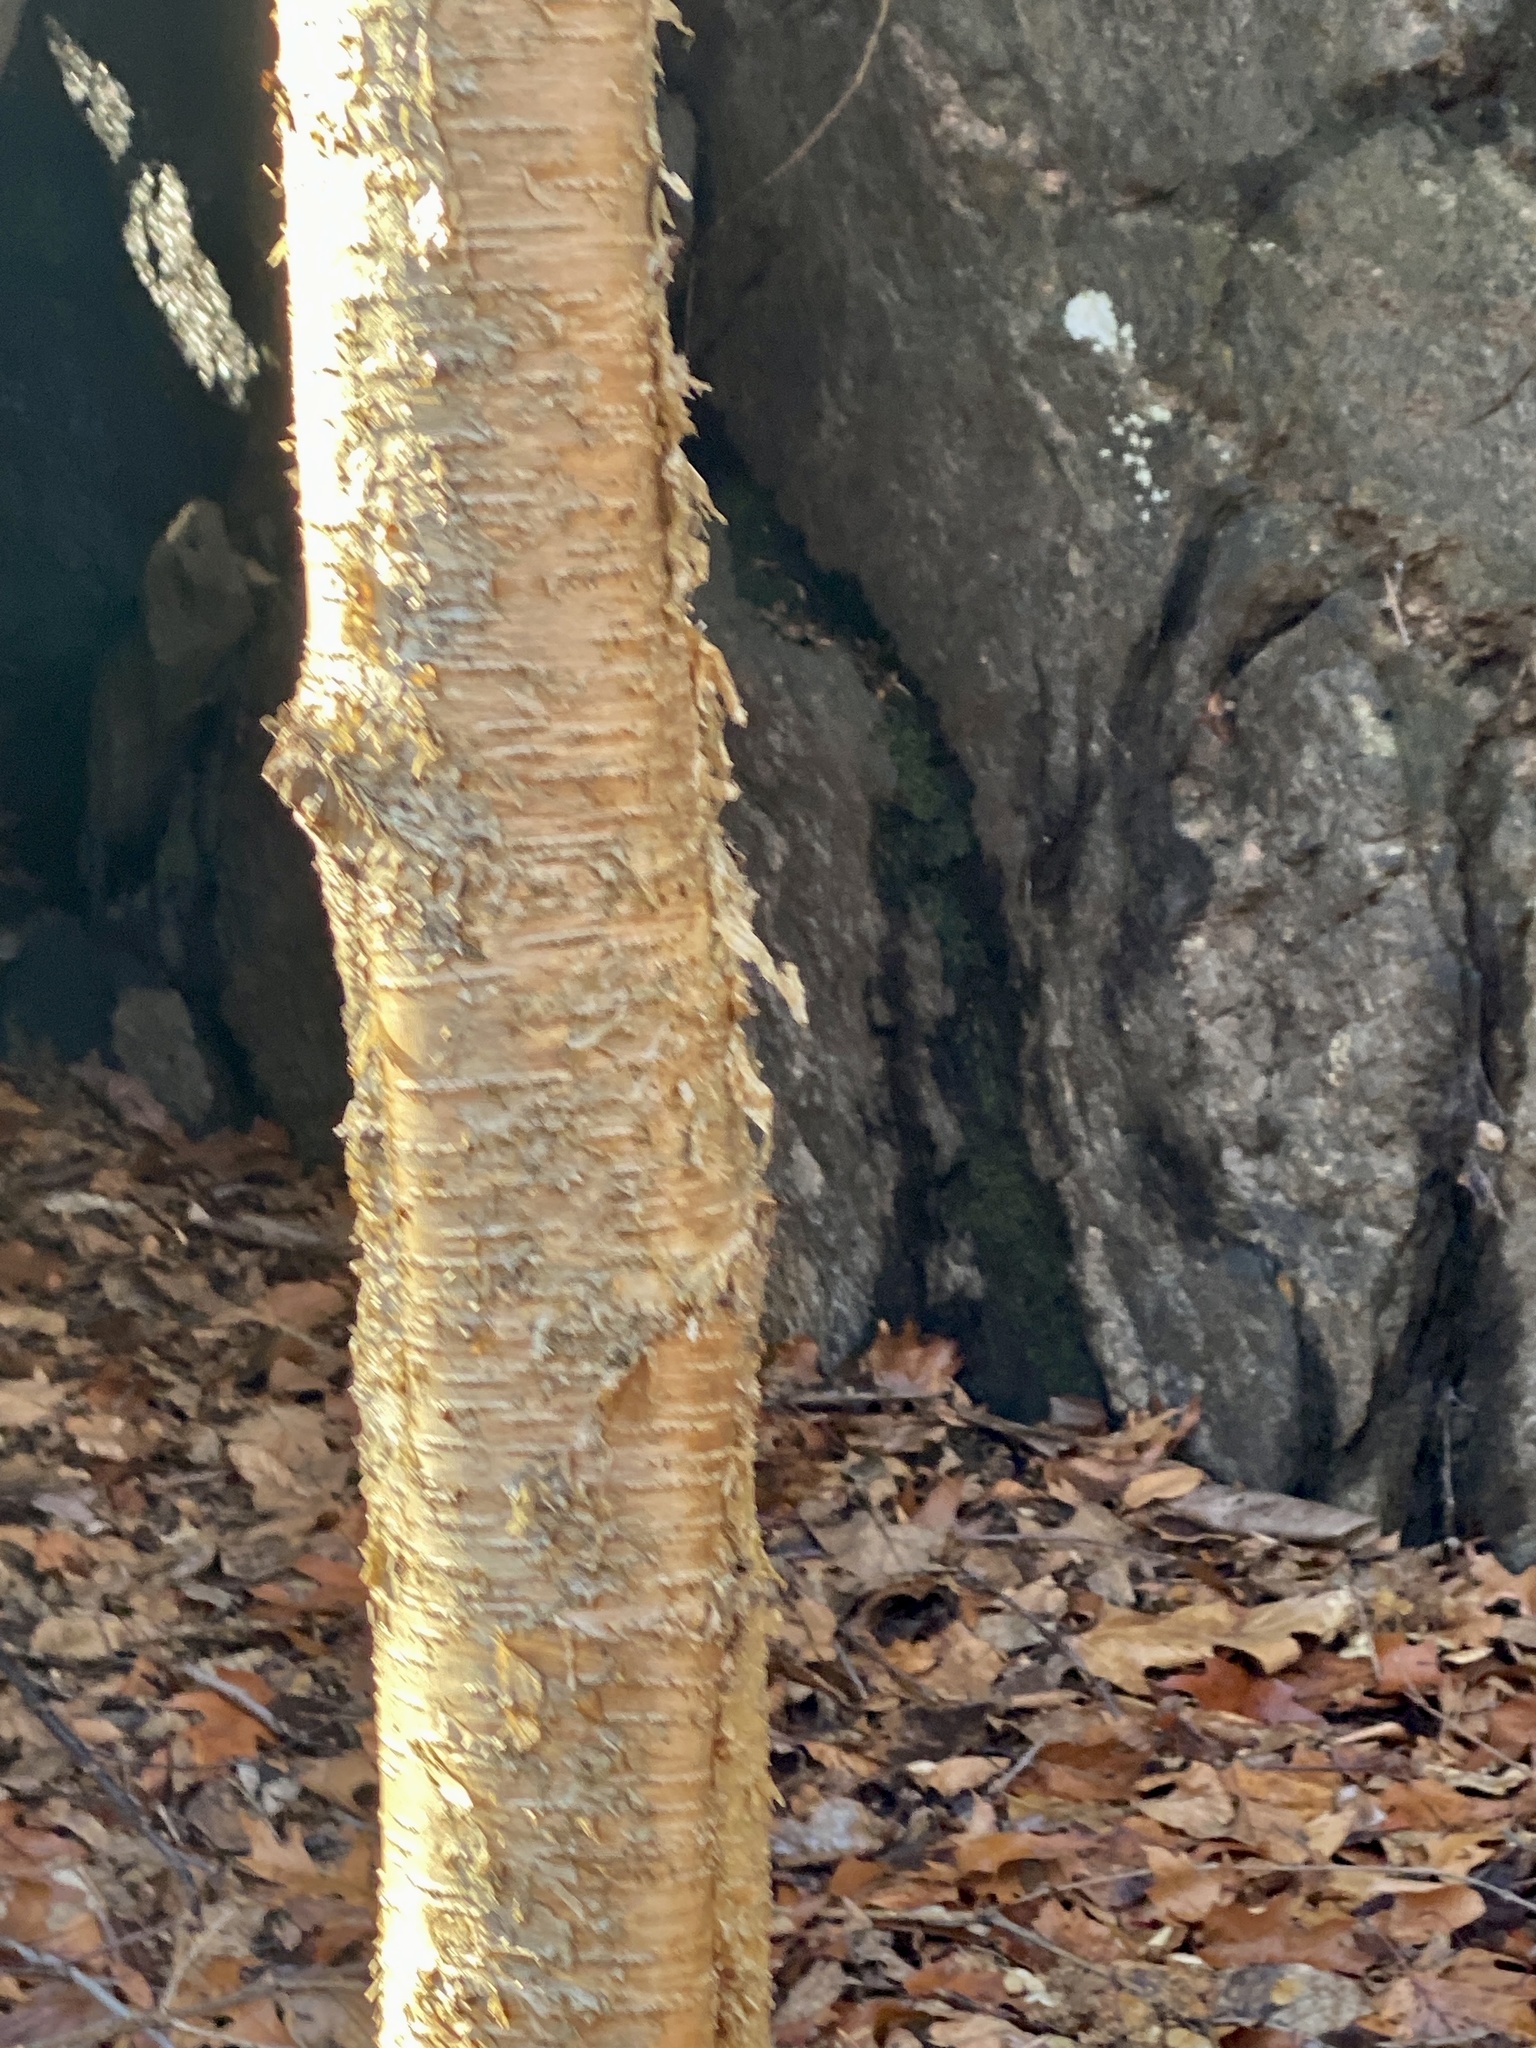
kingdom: Plantae
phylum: Tracheophyta
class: Magnoliopsida
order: Fagales
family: Betulaceae
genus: Betula
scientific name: Betula alleghaniensis
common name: Yellow birch
